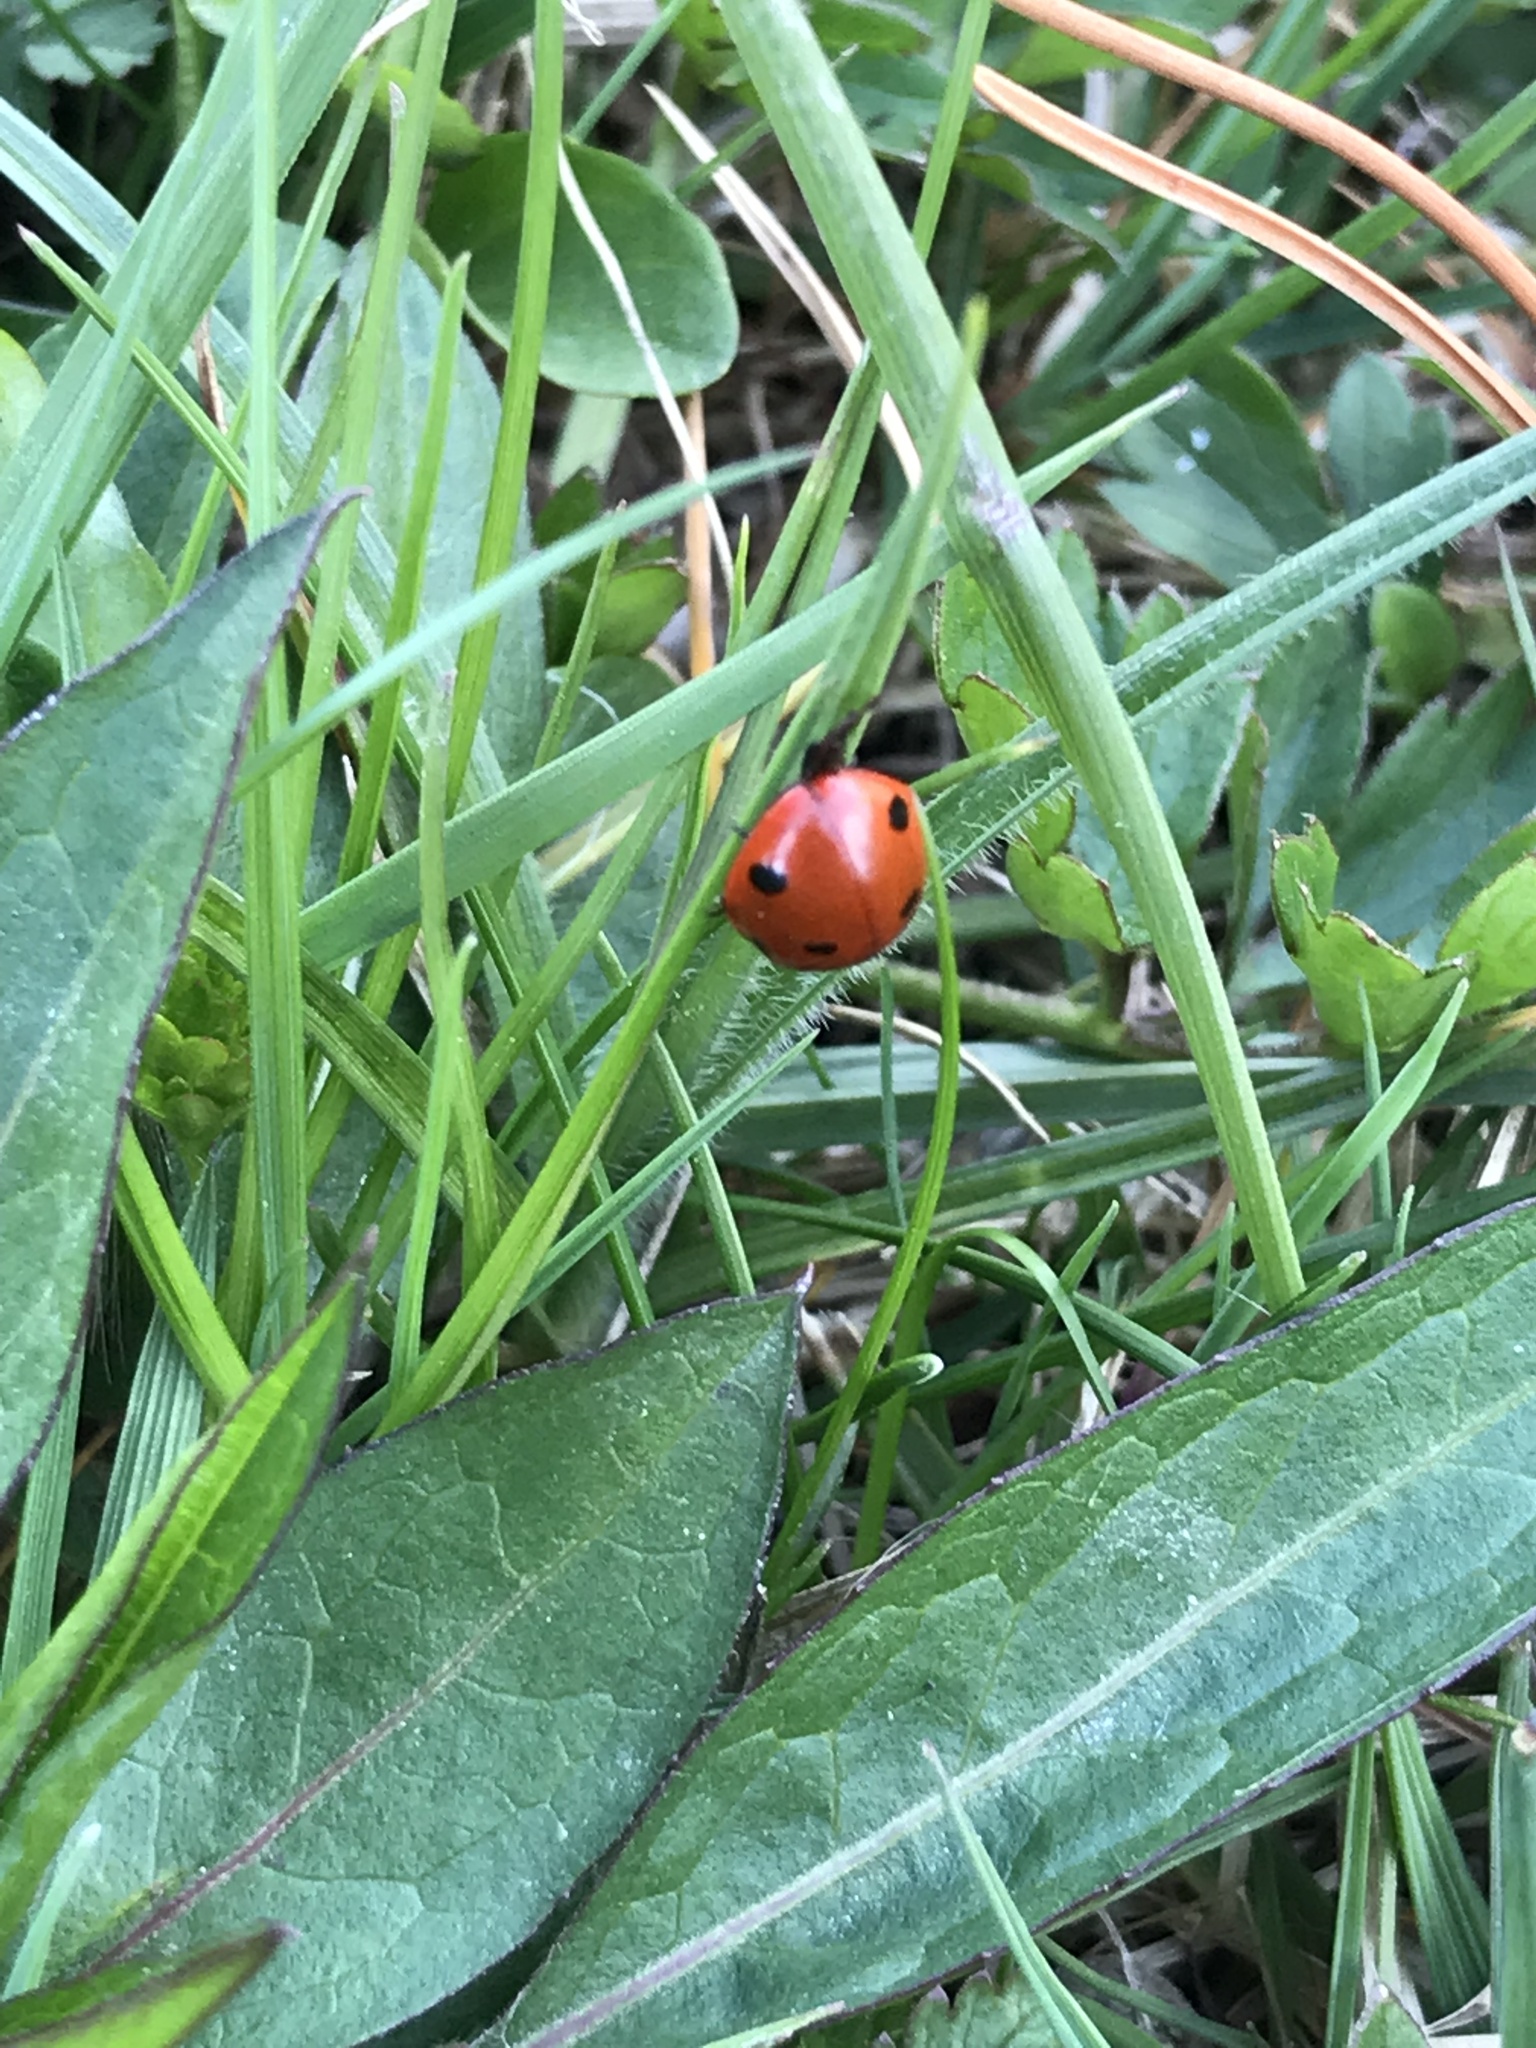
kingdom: Animalia
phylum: Arthropoda
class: Insecta
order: Coleoptera
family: Coccinellidae
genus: Coccinella
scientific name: Coccinella septempunctata
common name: Sevenspotted lady beetle
